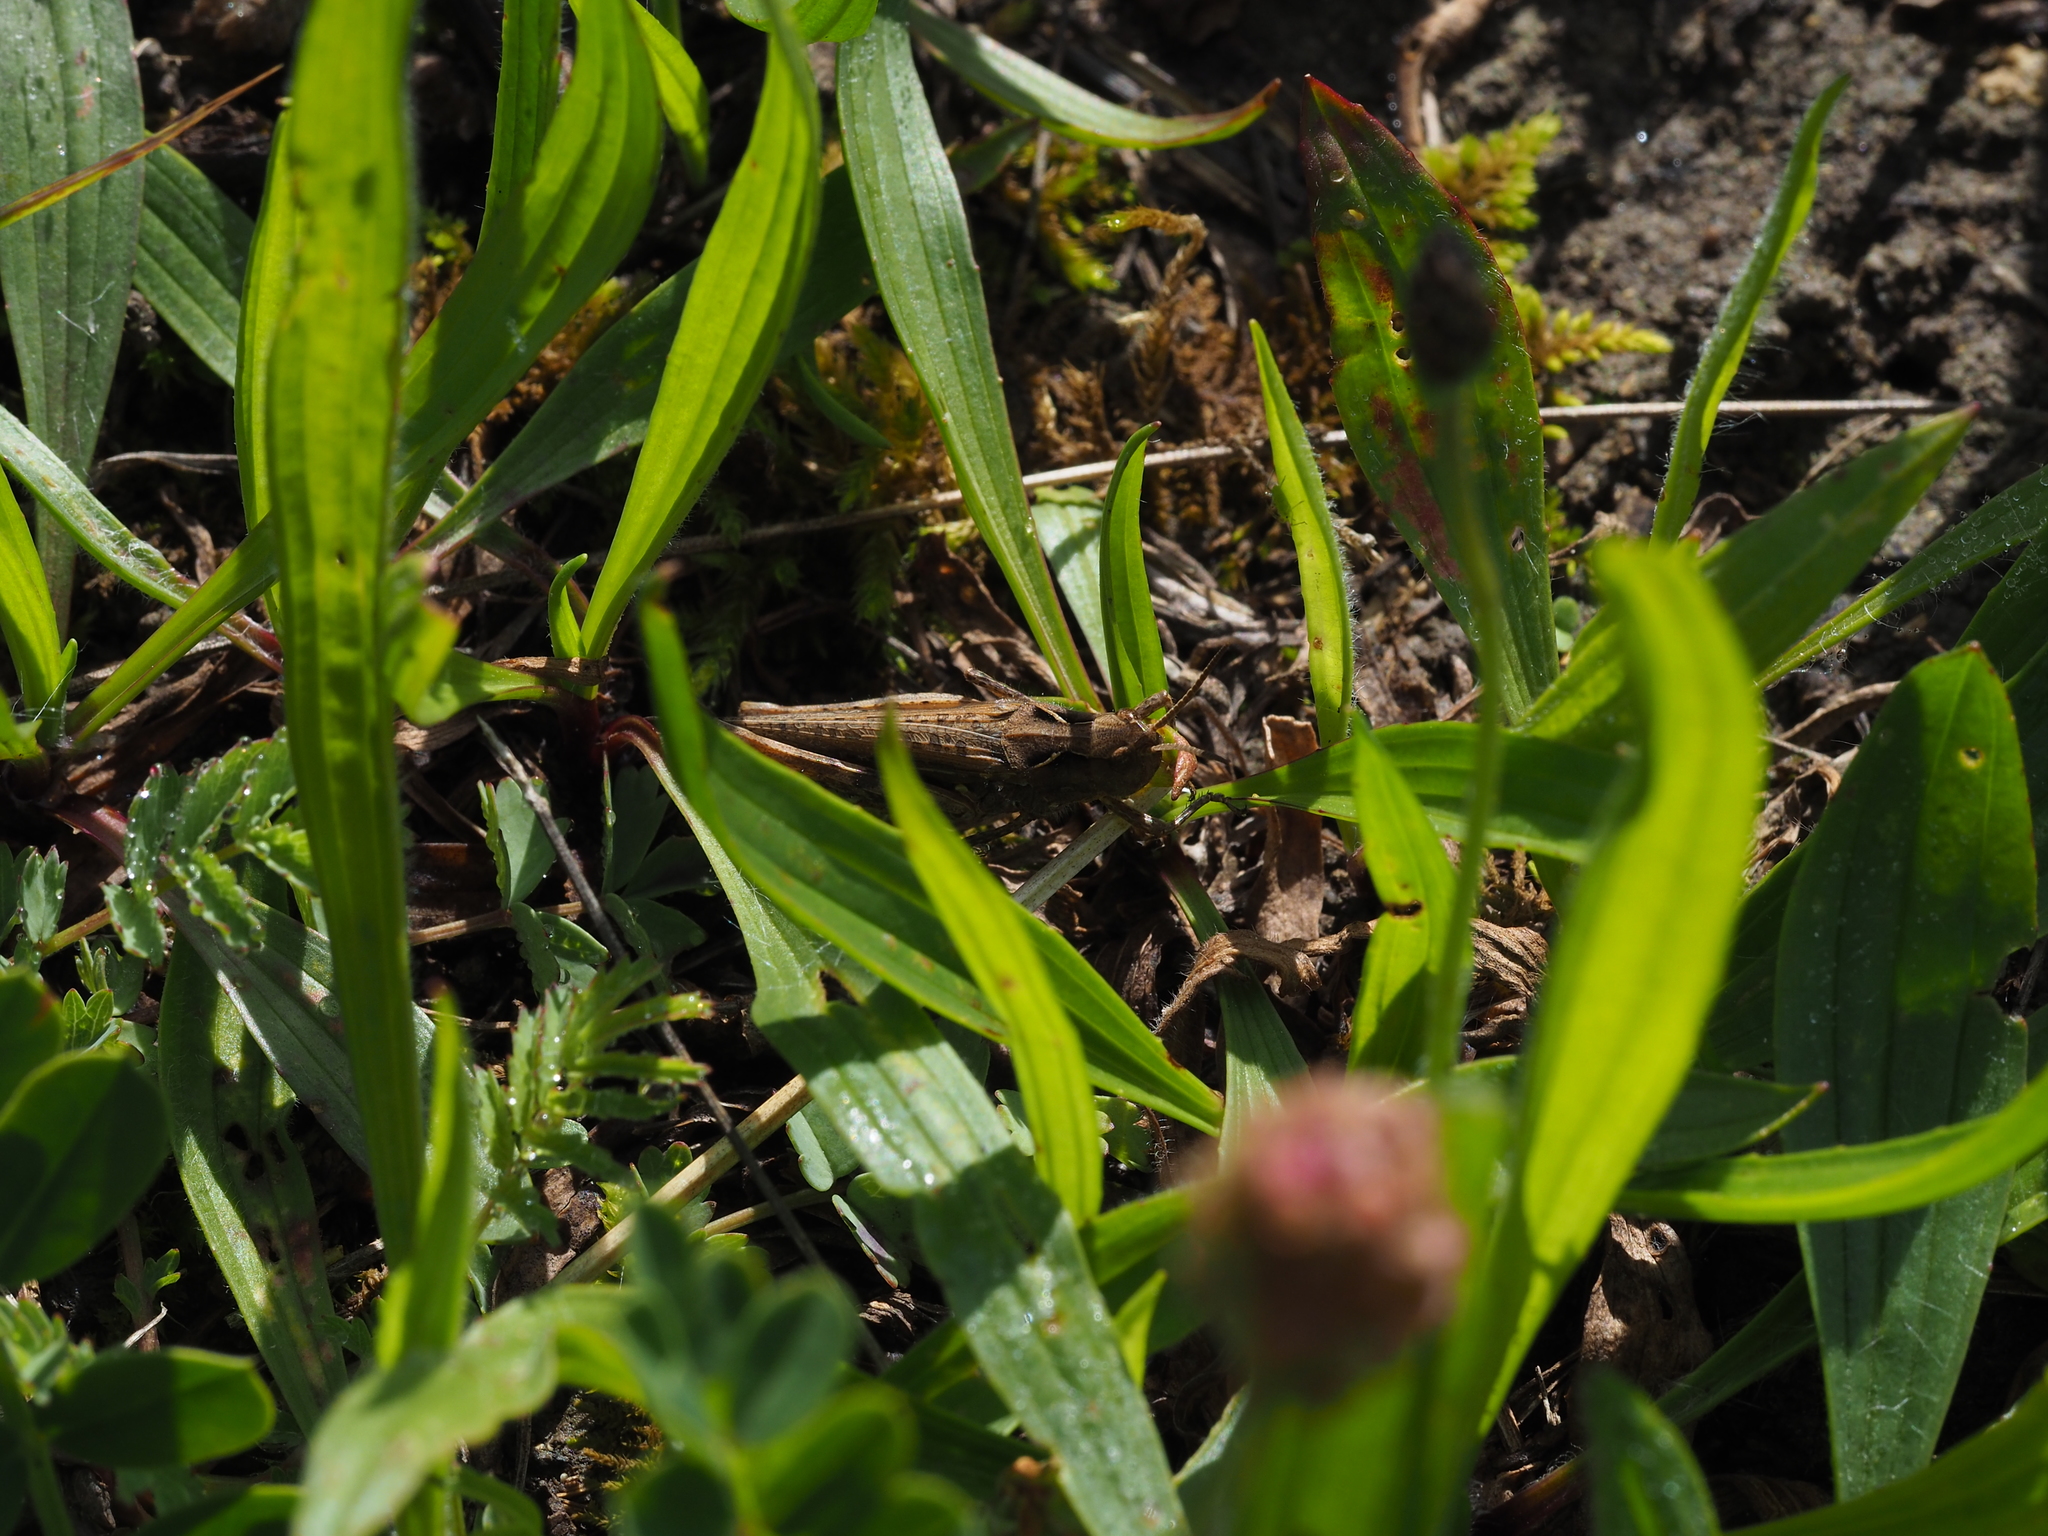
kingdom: Plantae
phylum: Tracheophyta
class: Magnoliopsida
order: Lamiales
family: Plantaginaceae
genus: Plantago
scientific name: Plantago lanceolata
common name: Ribwort plantain
